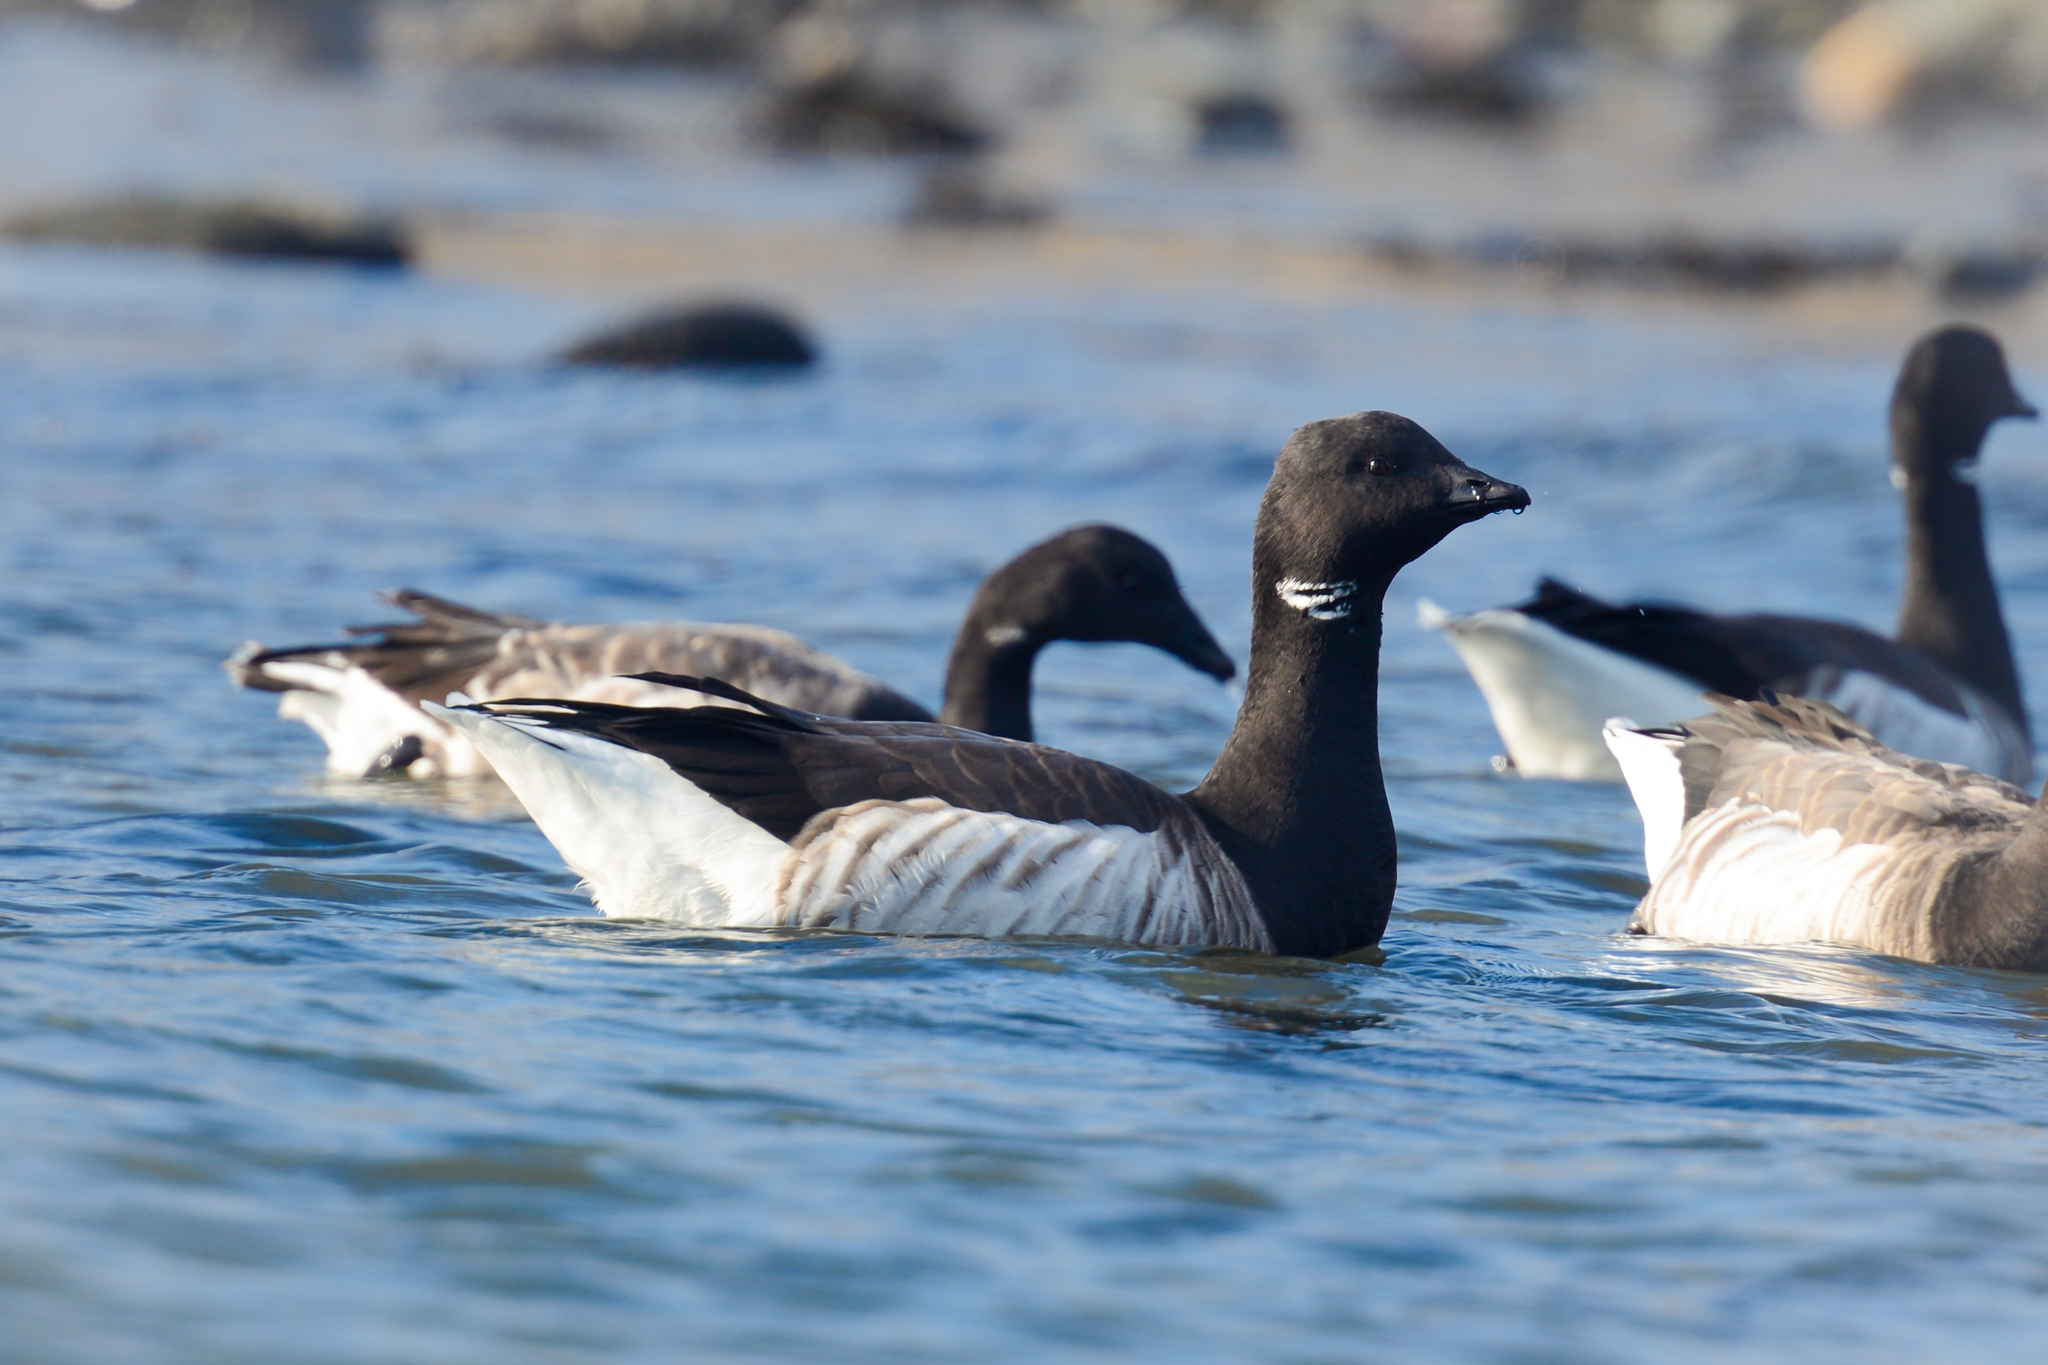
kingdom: Animalia
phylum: Chordata
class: Aves
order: Anseriformes
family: Anatidae
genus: Branta
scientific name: Branta bernicla
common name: Brant goose
